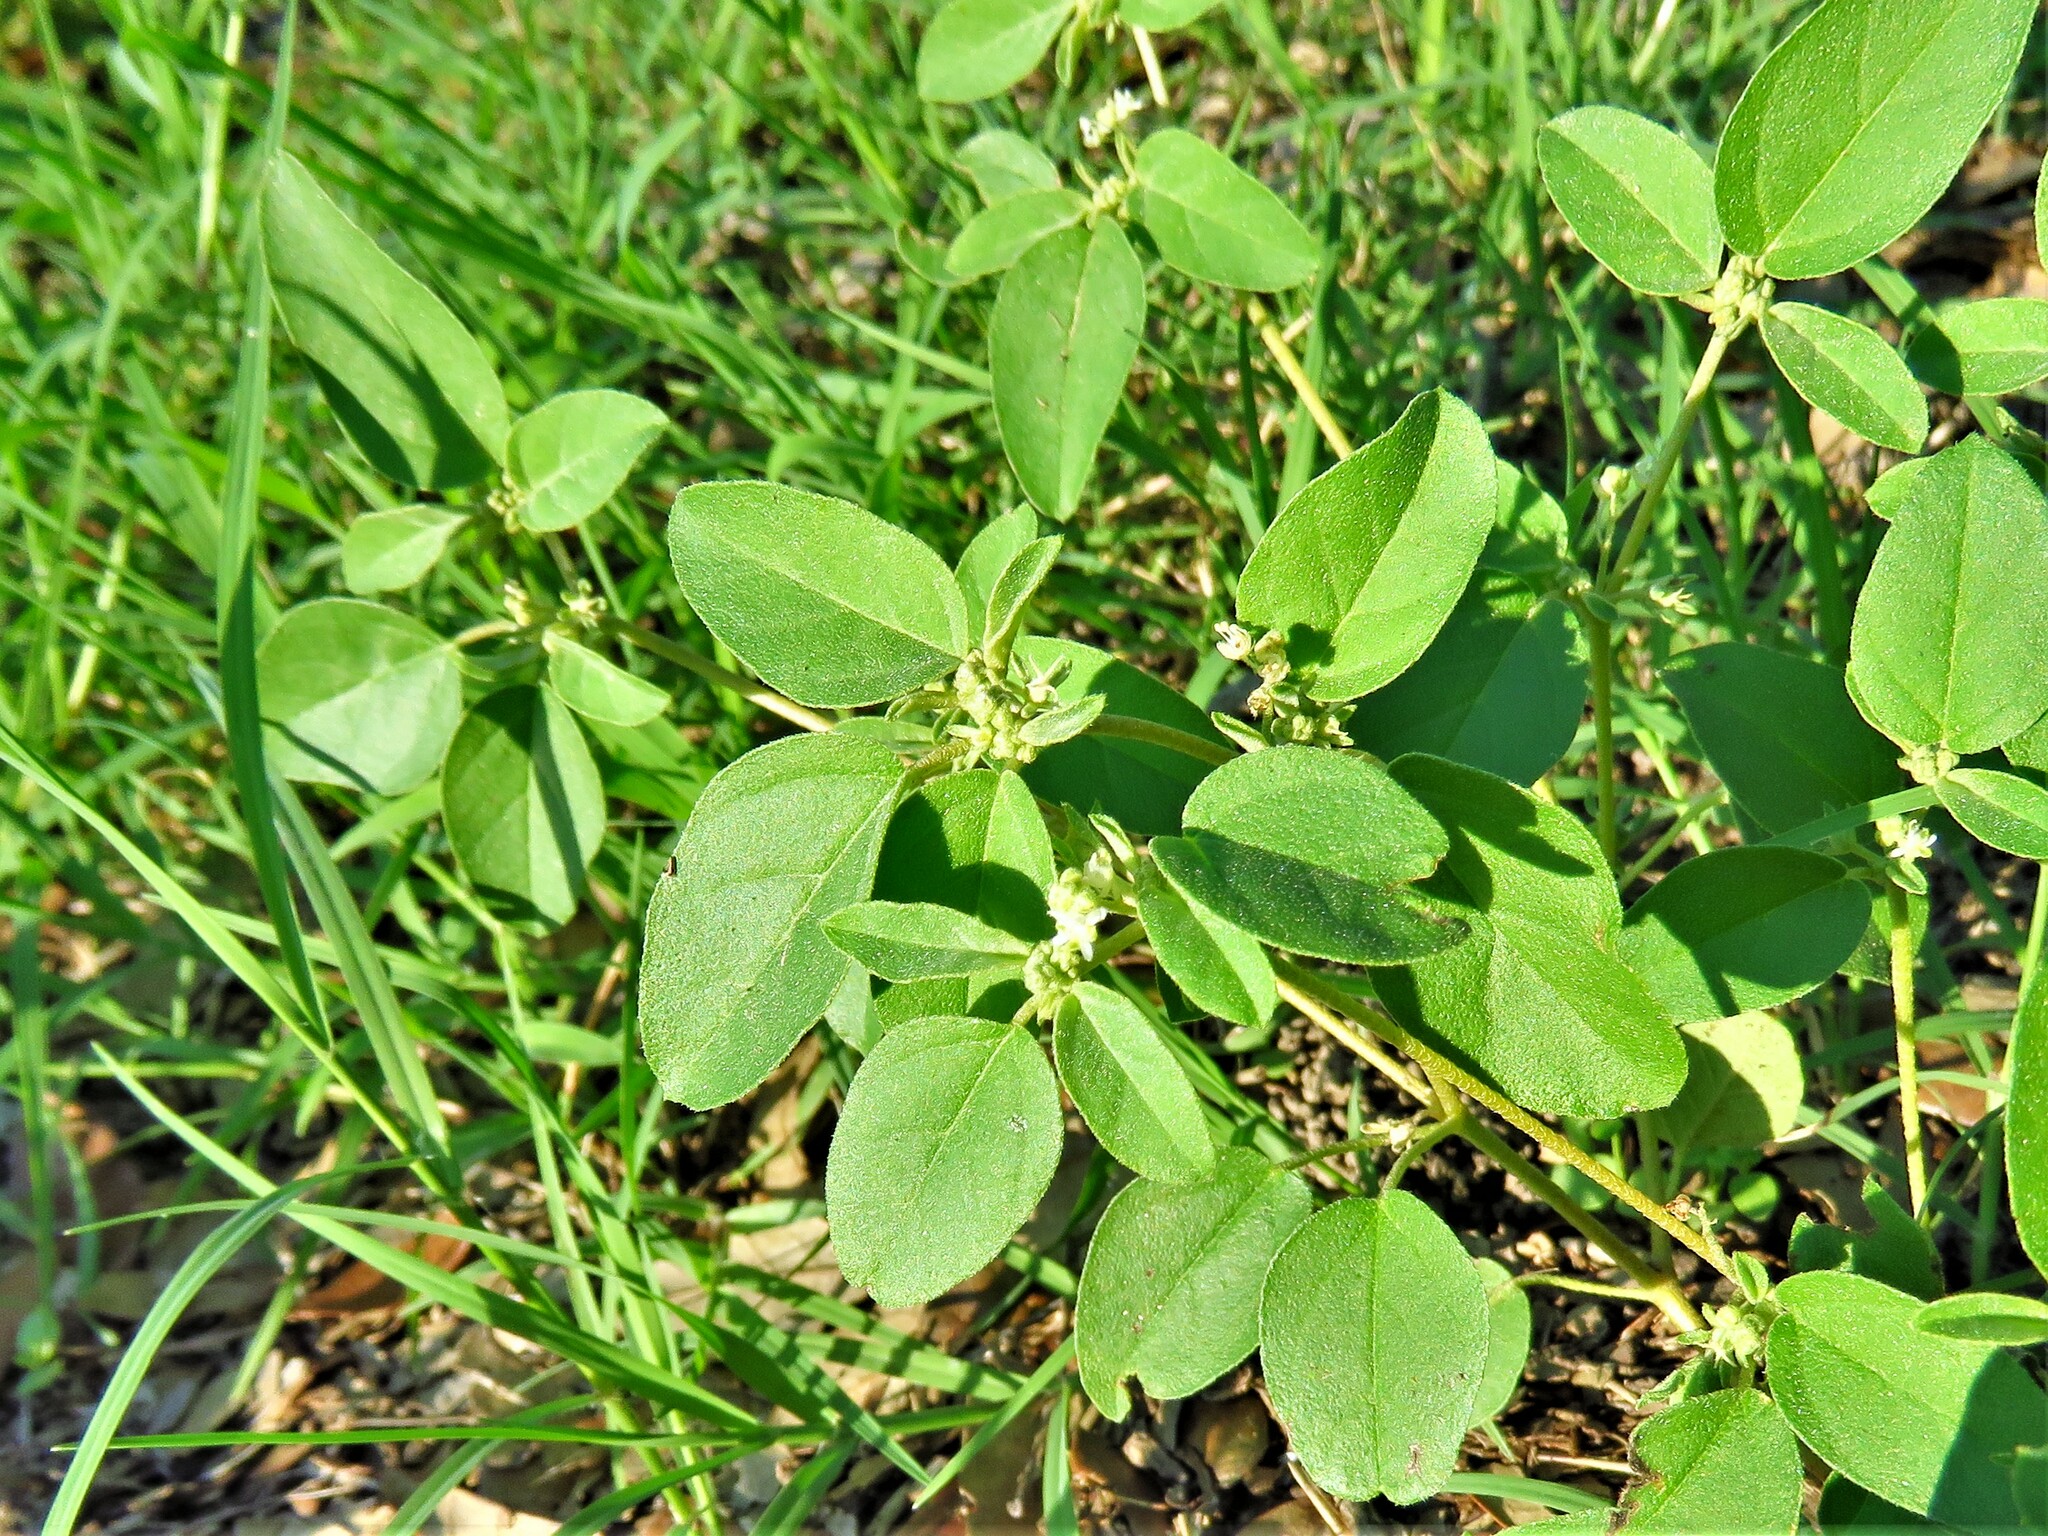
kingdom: Plantae
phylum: Tracheophyta
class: Magnoliopsida
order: Malpighiales
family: Euphorbiaceae
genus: Croton
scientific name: Croton monanthogynus
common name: One-seed croton
